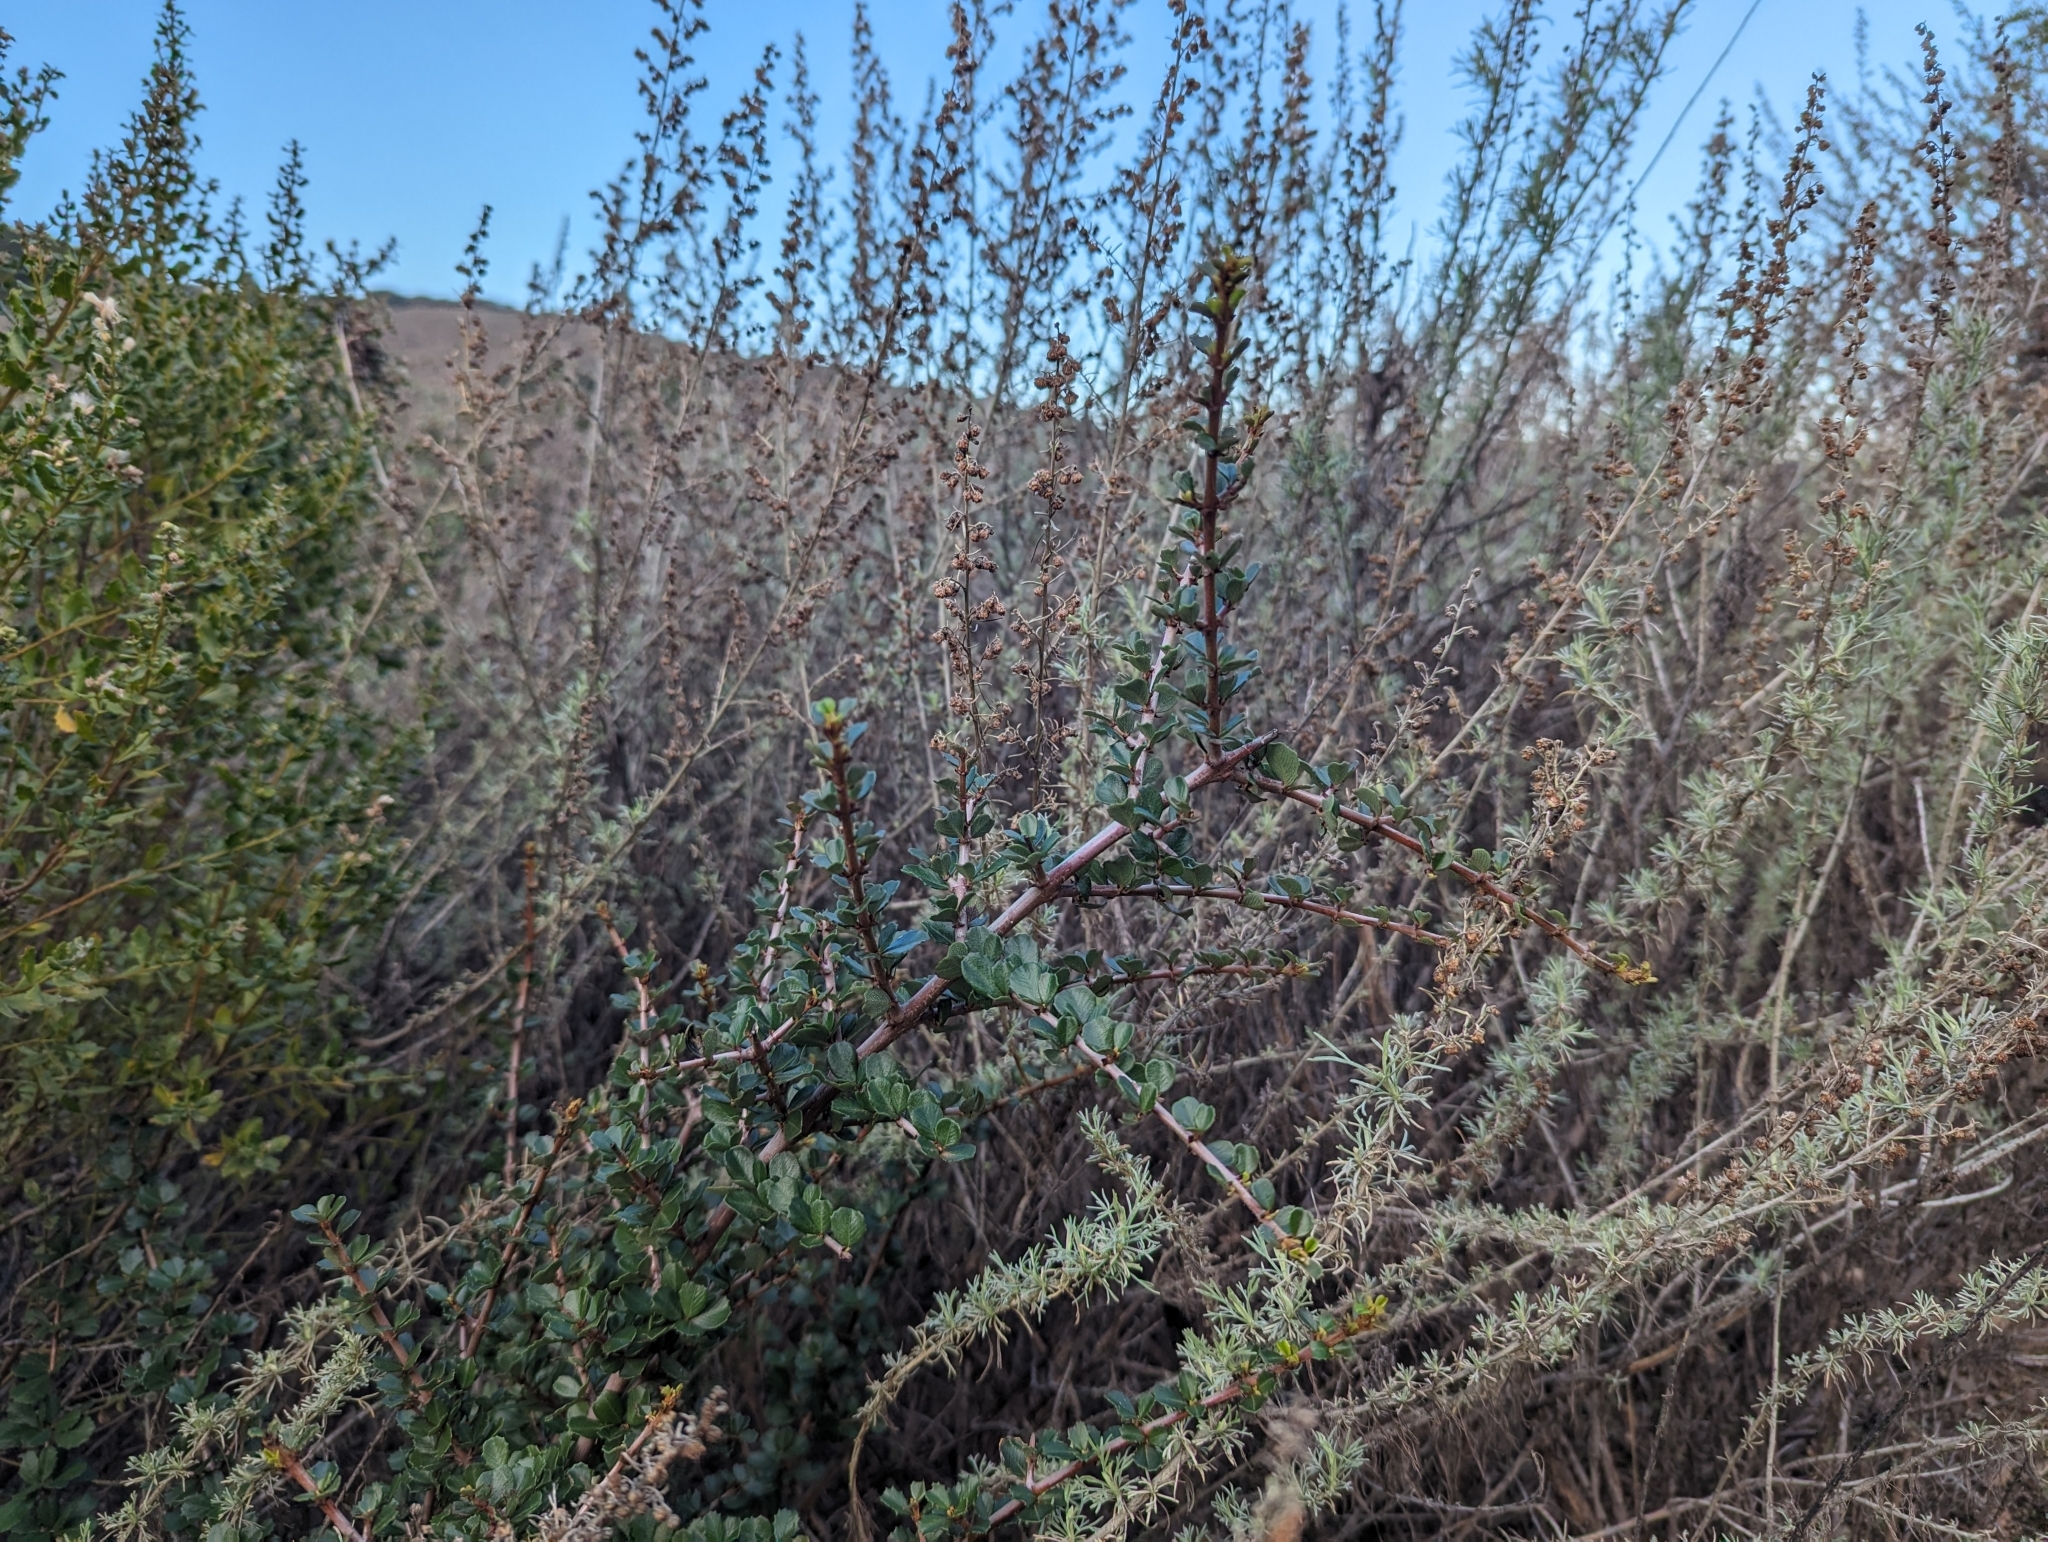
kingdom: Plantae
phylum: Tracheophyta
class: Magnoliopsida
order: Rosales
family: Rhamnaceae
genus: Ceanothus
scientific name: Ceanothus cuneatus
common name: Cuneate ceanothus
